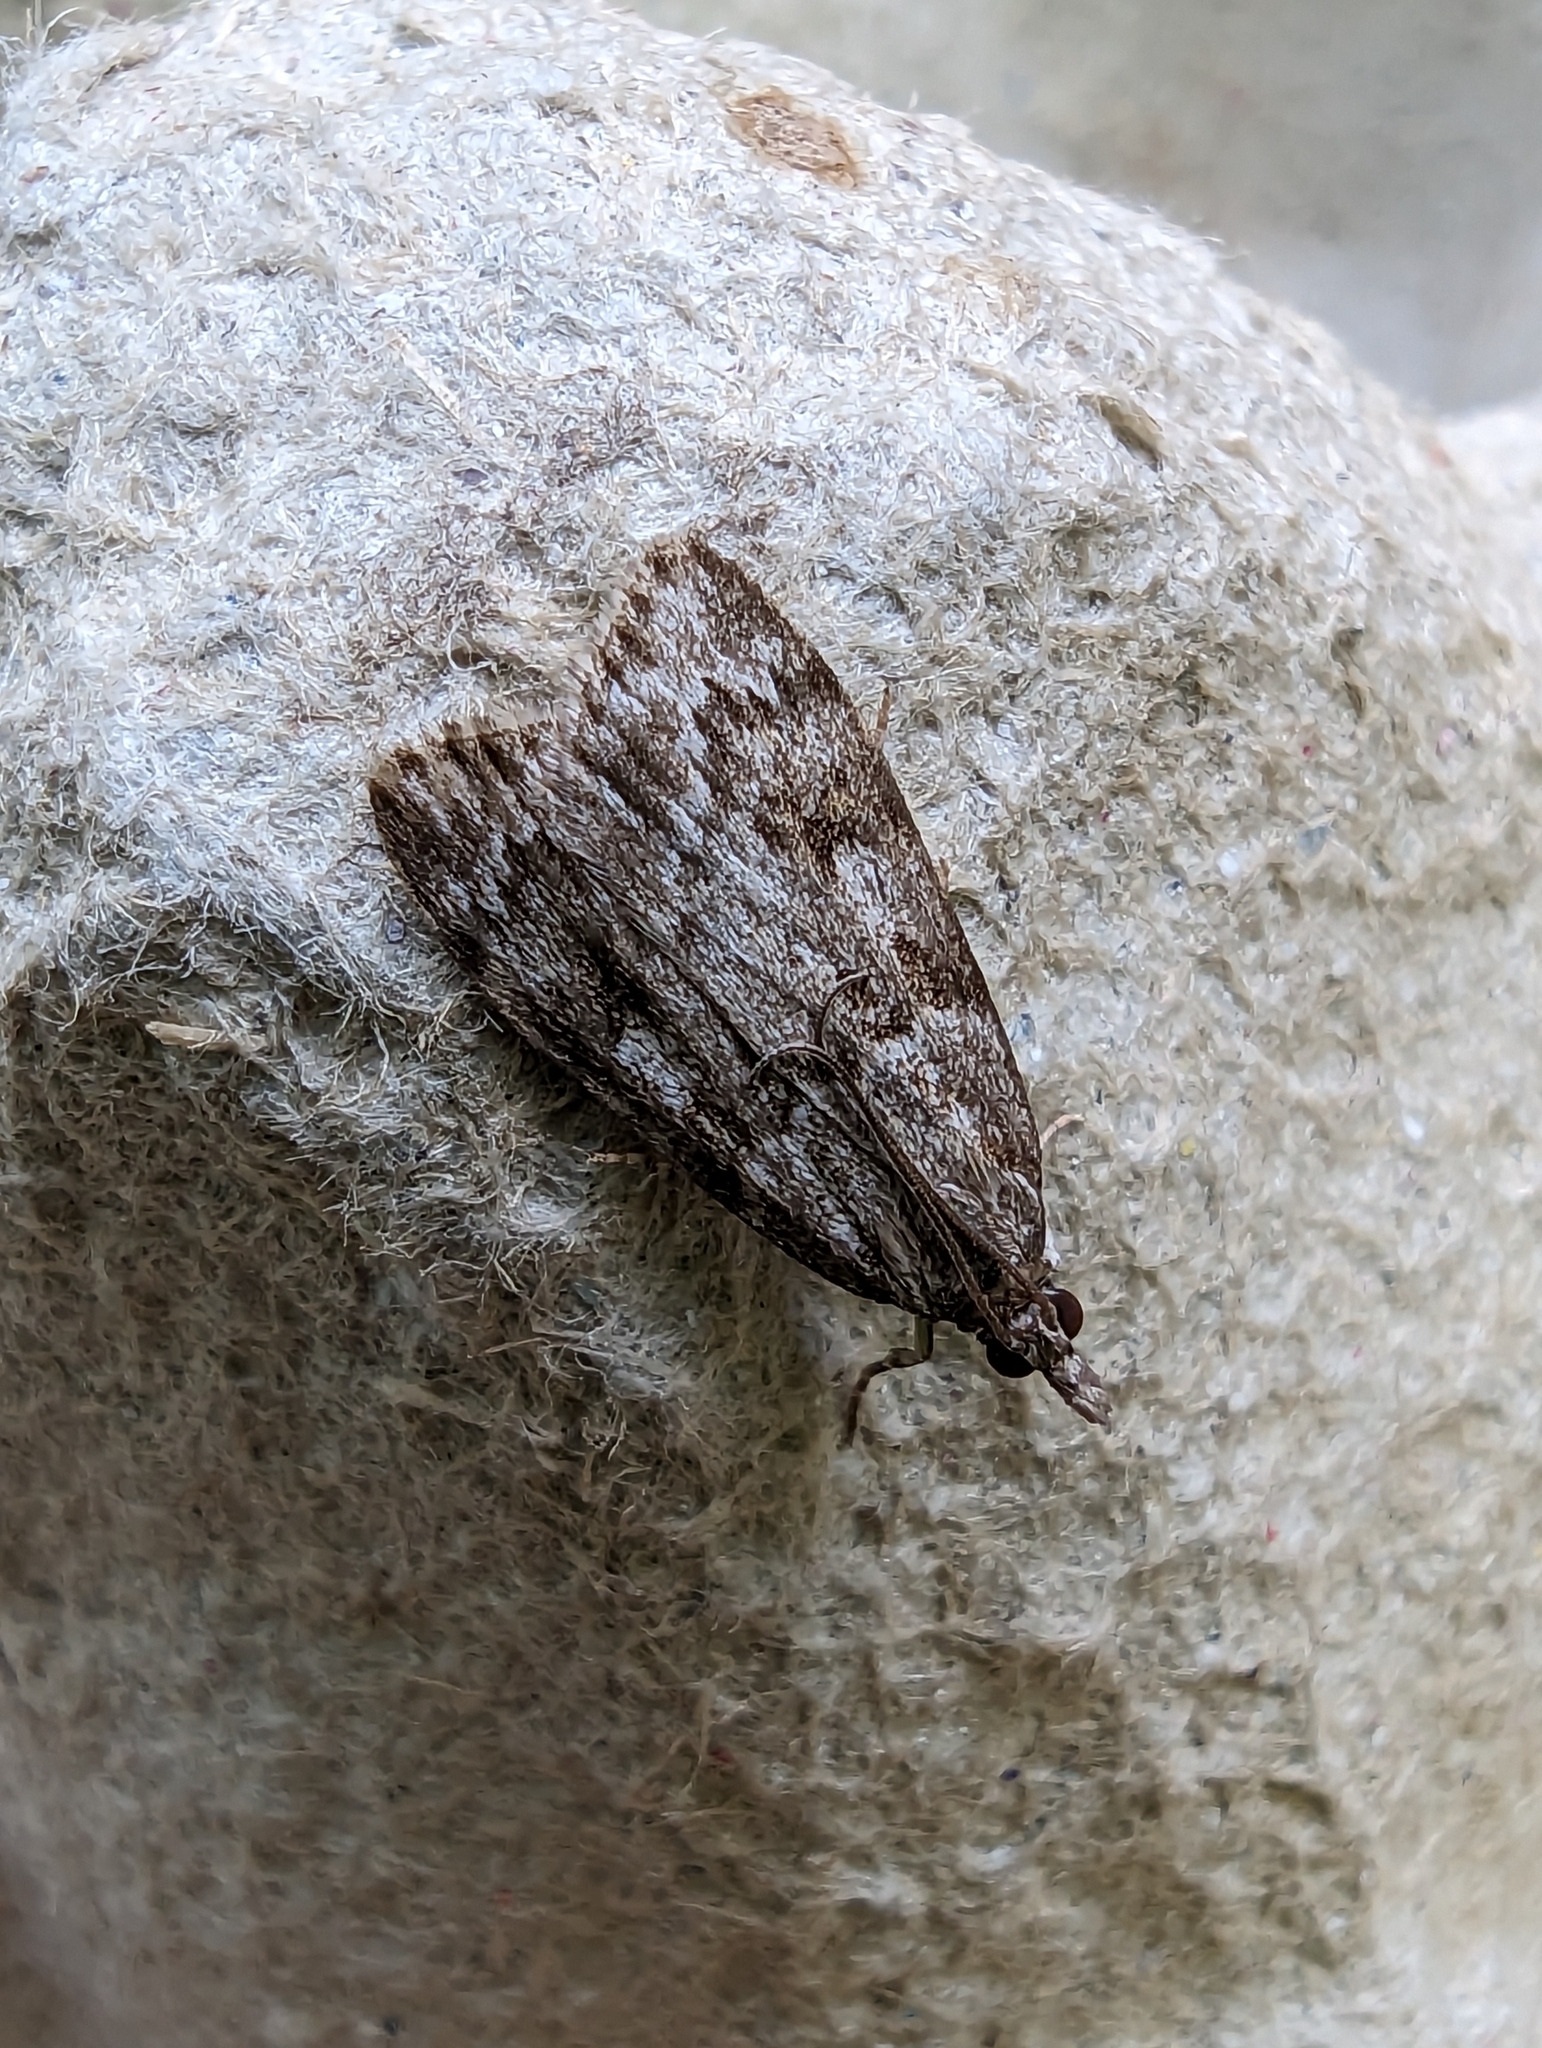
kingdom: Animalia
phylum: Arthropoda
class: Insecta
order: Lepidoptera
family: Crambidae
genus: Scoparia
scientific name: Scoparia ambigualis
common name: Common grey
